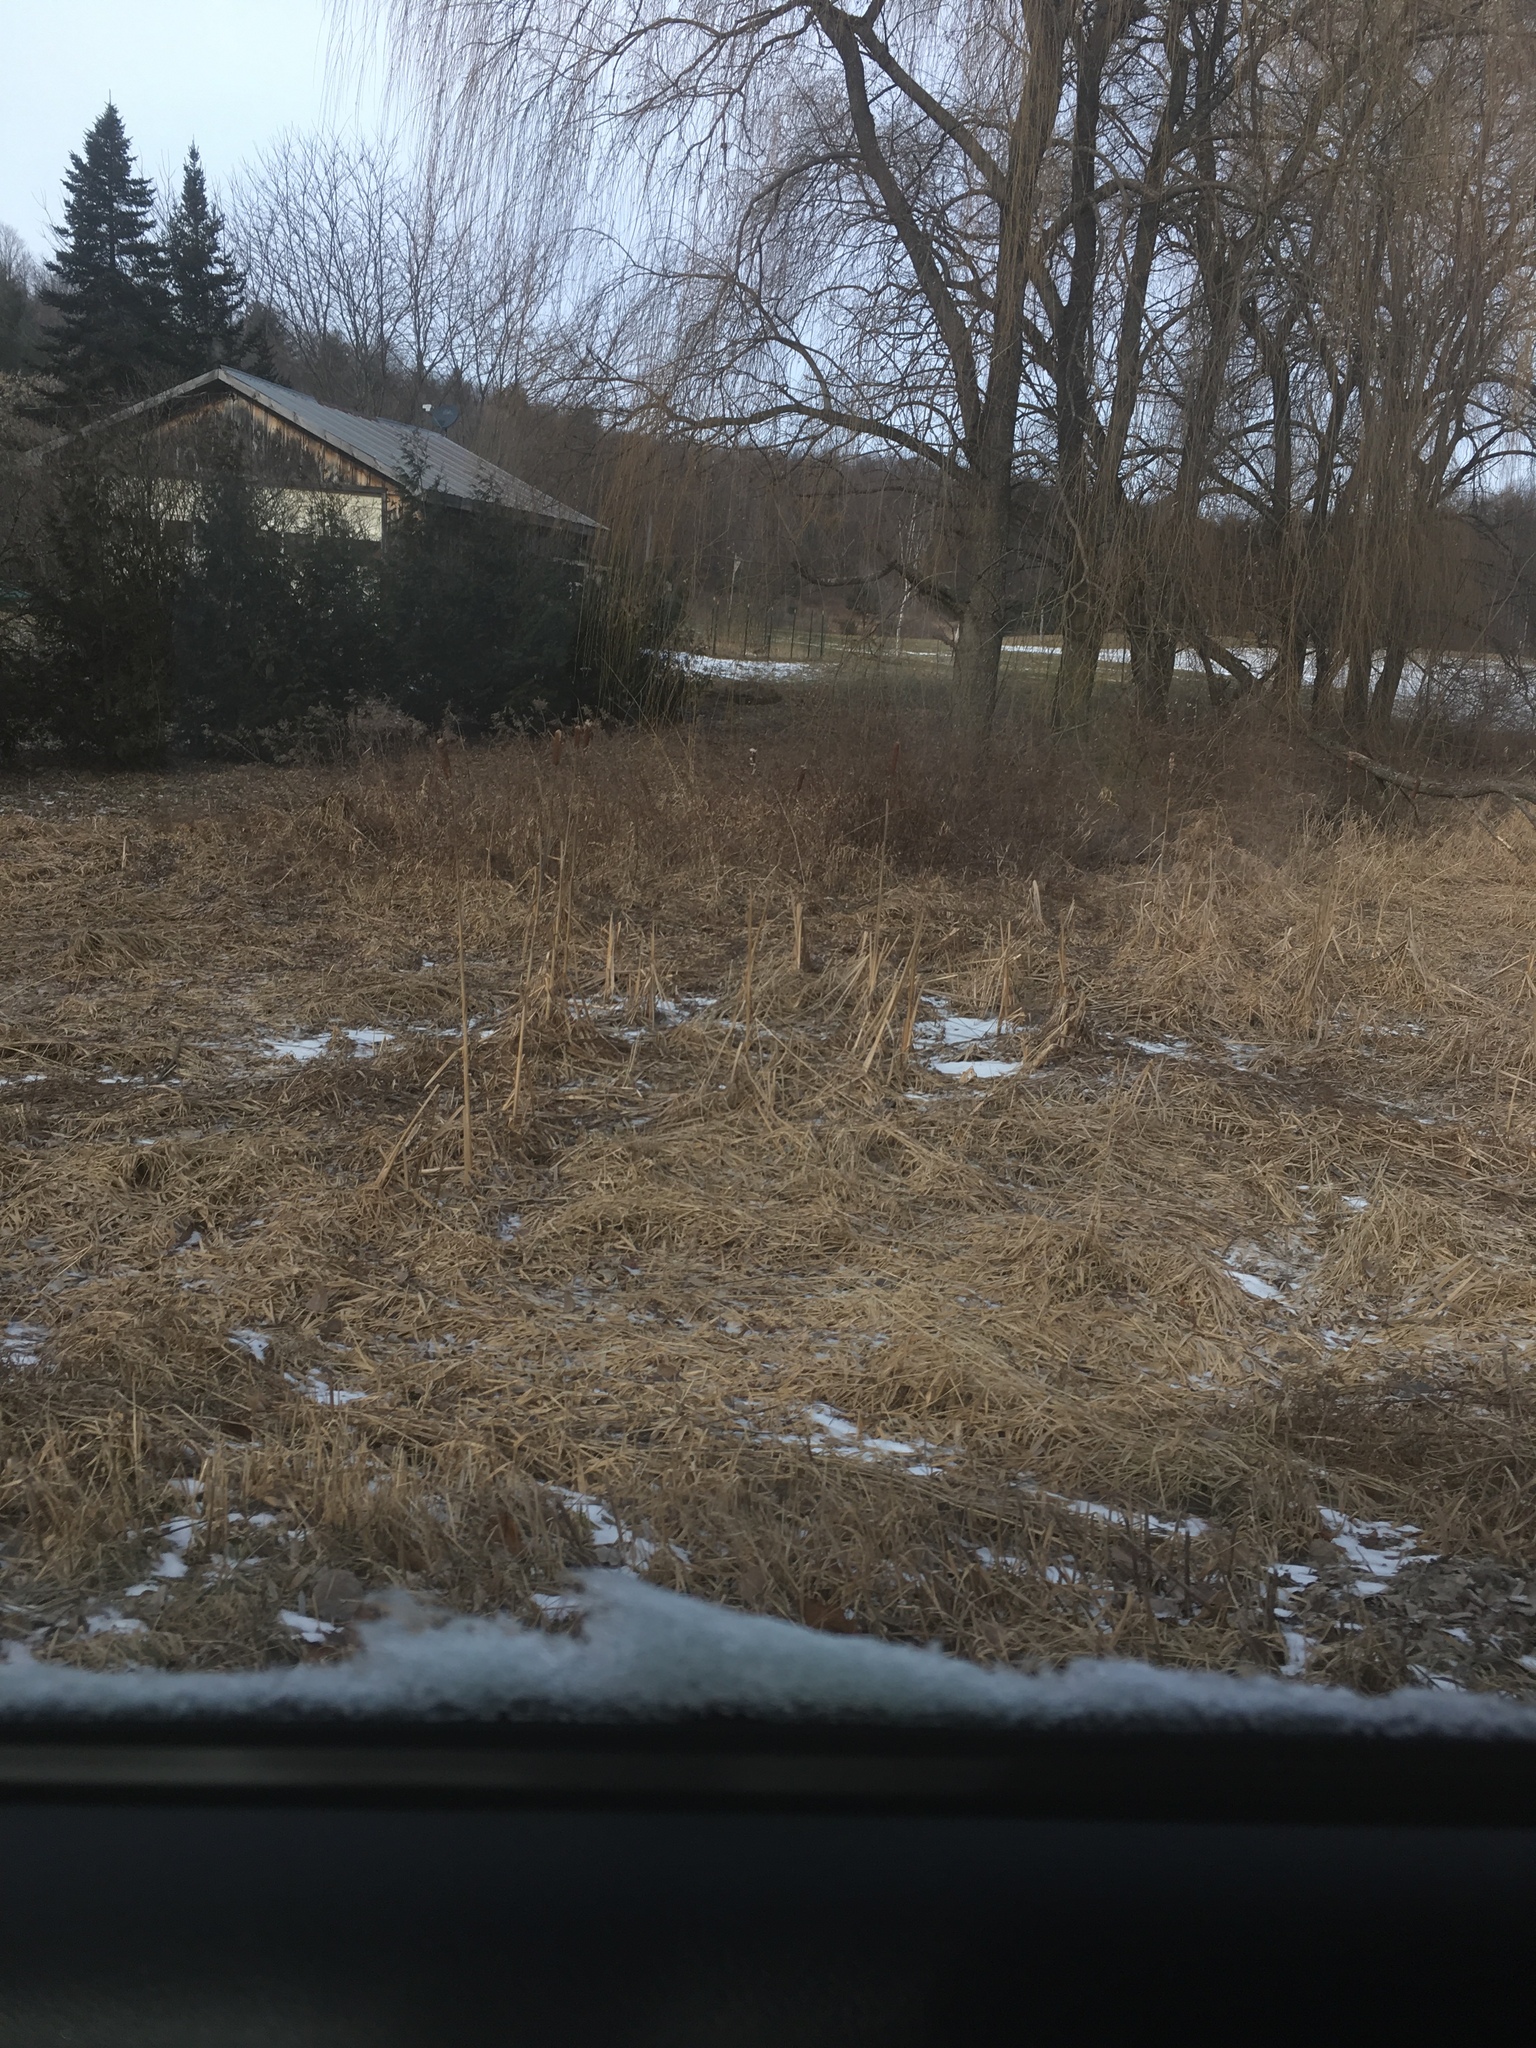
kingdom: Plantae
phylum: Tracheophyta
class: Liliopsida
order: Poales
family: Typhaceae
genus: Typha
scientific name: Typha
